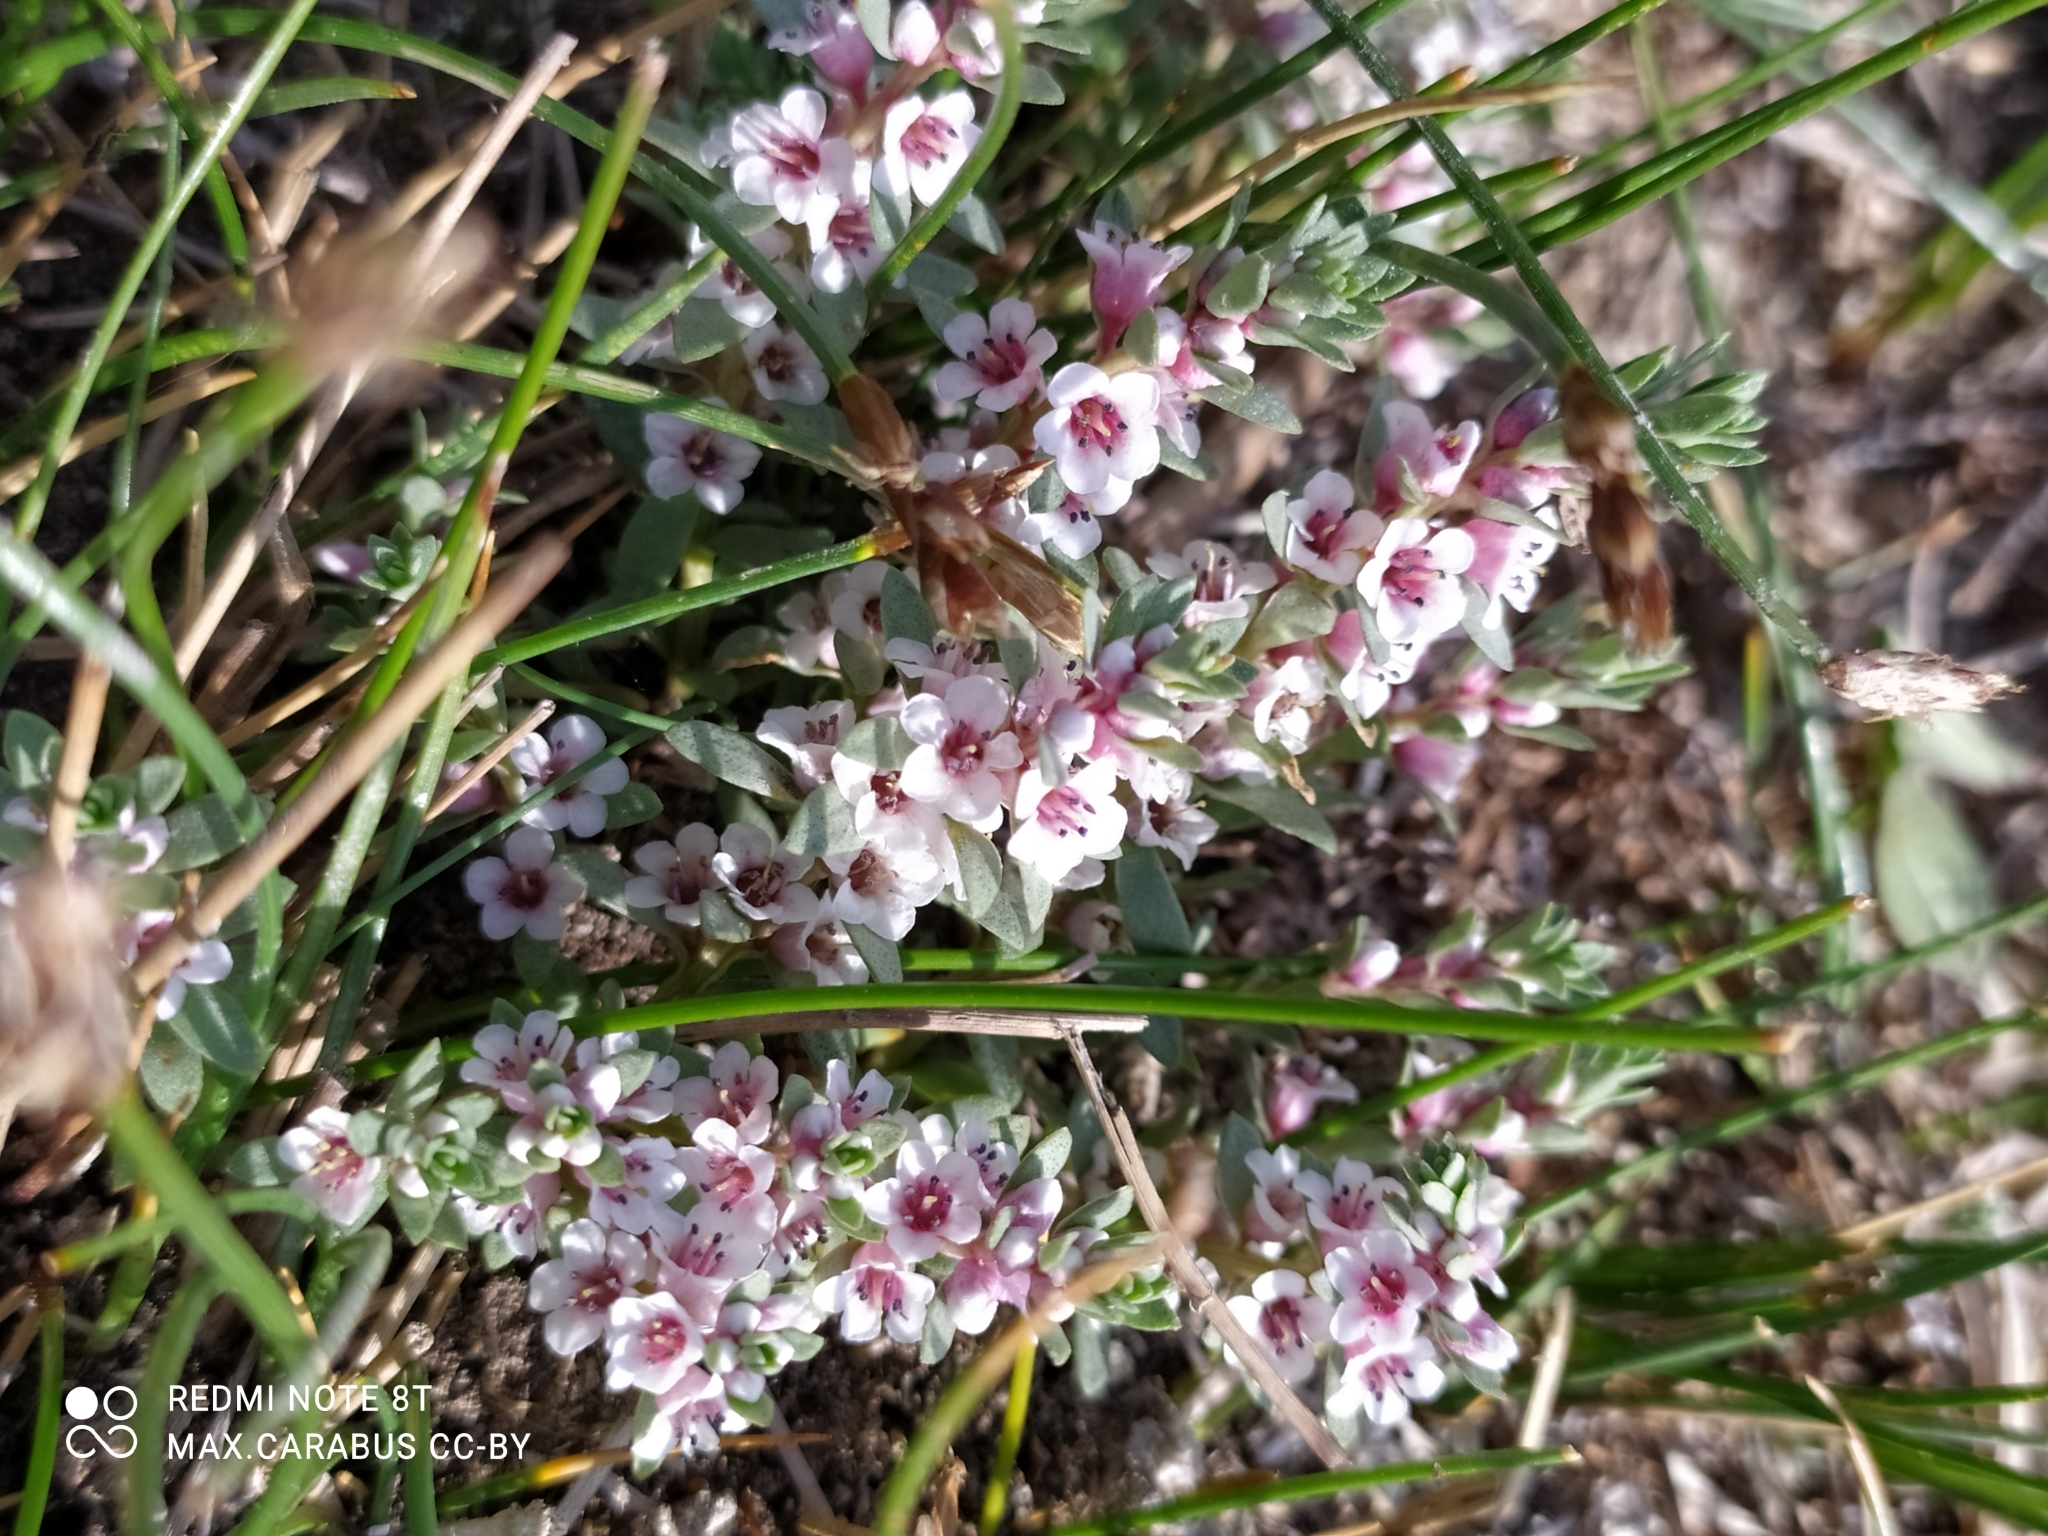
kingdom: Plantae
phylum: Tracheophyta
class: Magnoliopsida
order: Ericales
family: Primulaceae
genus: Lysimachia
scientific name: Lysimachia maritima
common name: Sea milkwort
